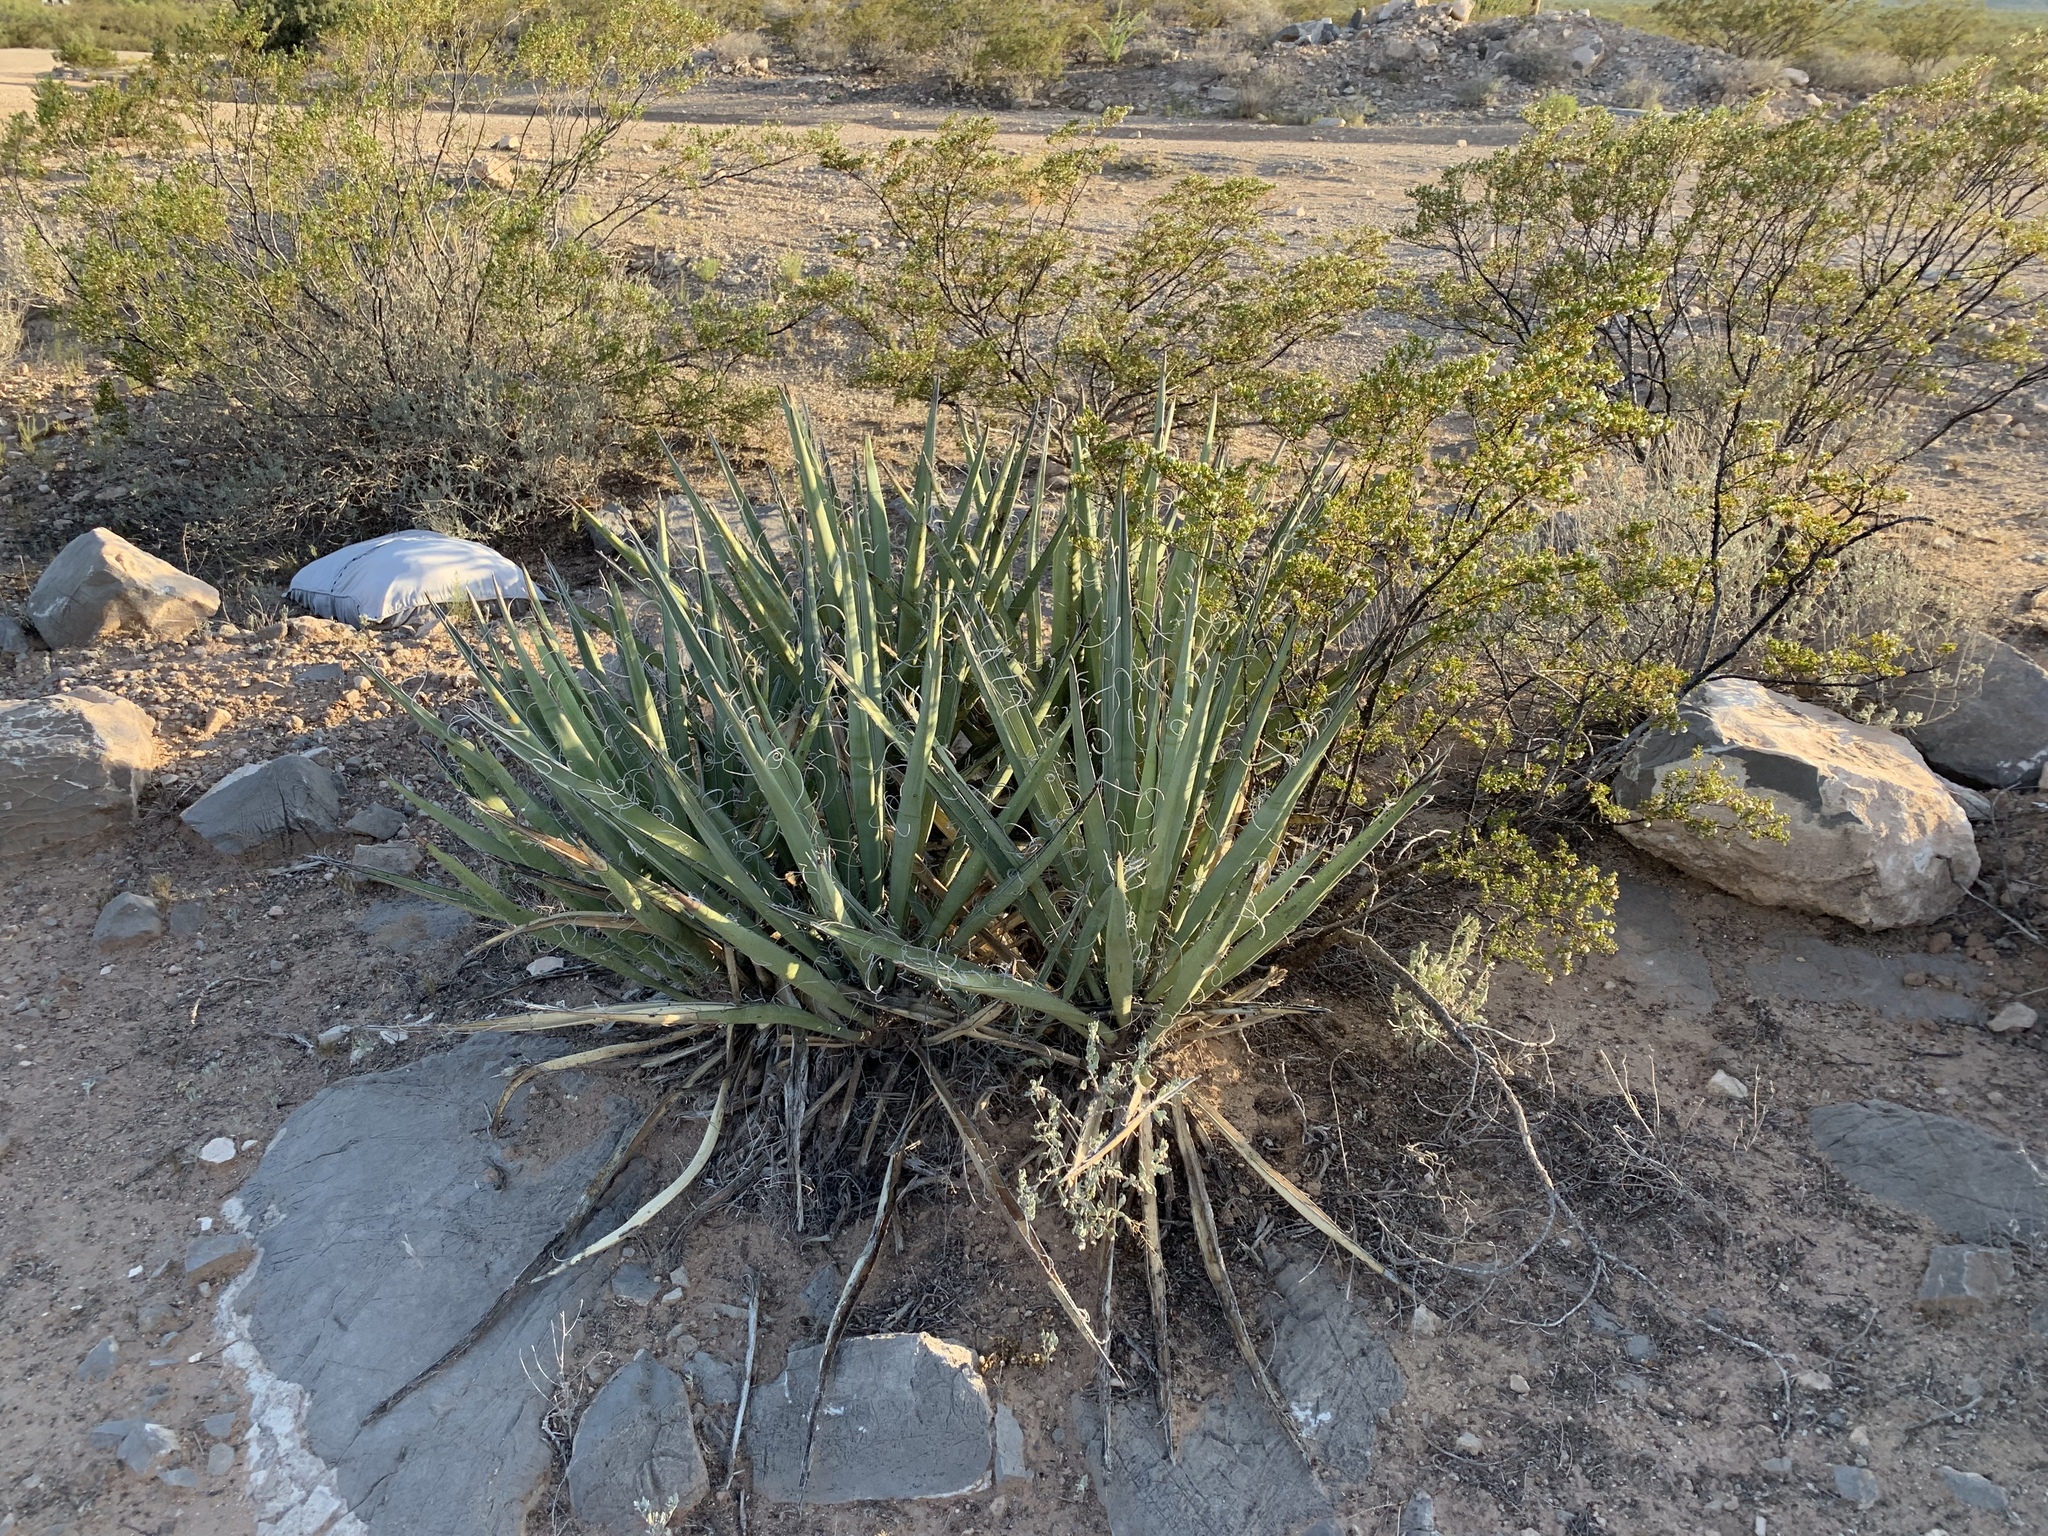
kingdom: Plantae
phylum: Tracheophyta
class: Liliopsida
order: Asparagales
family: Asparagaceae
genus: Yucca
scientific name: Yucca baccata
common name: Banana yucca
